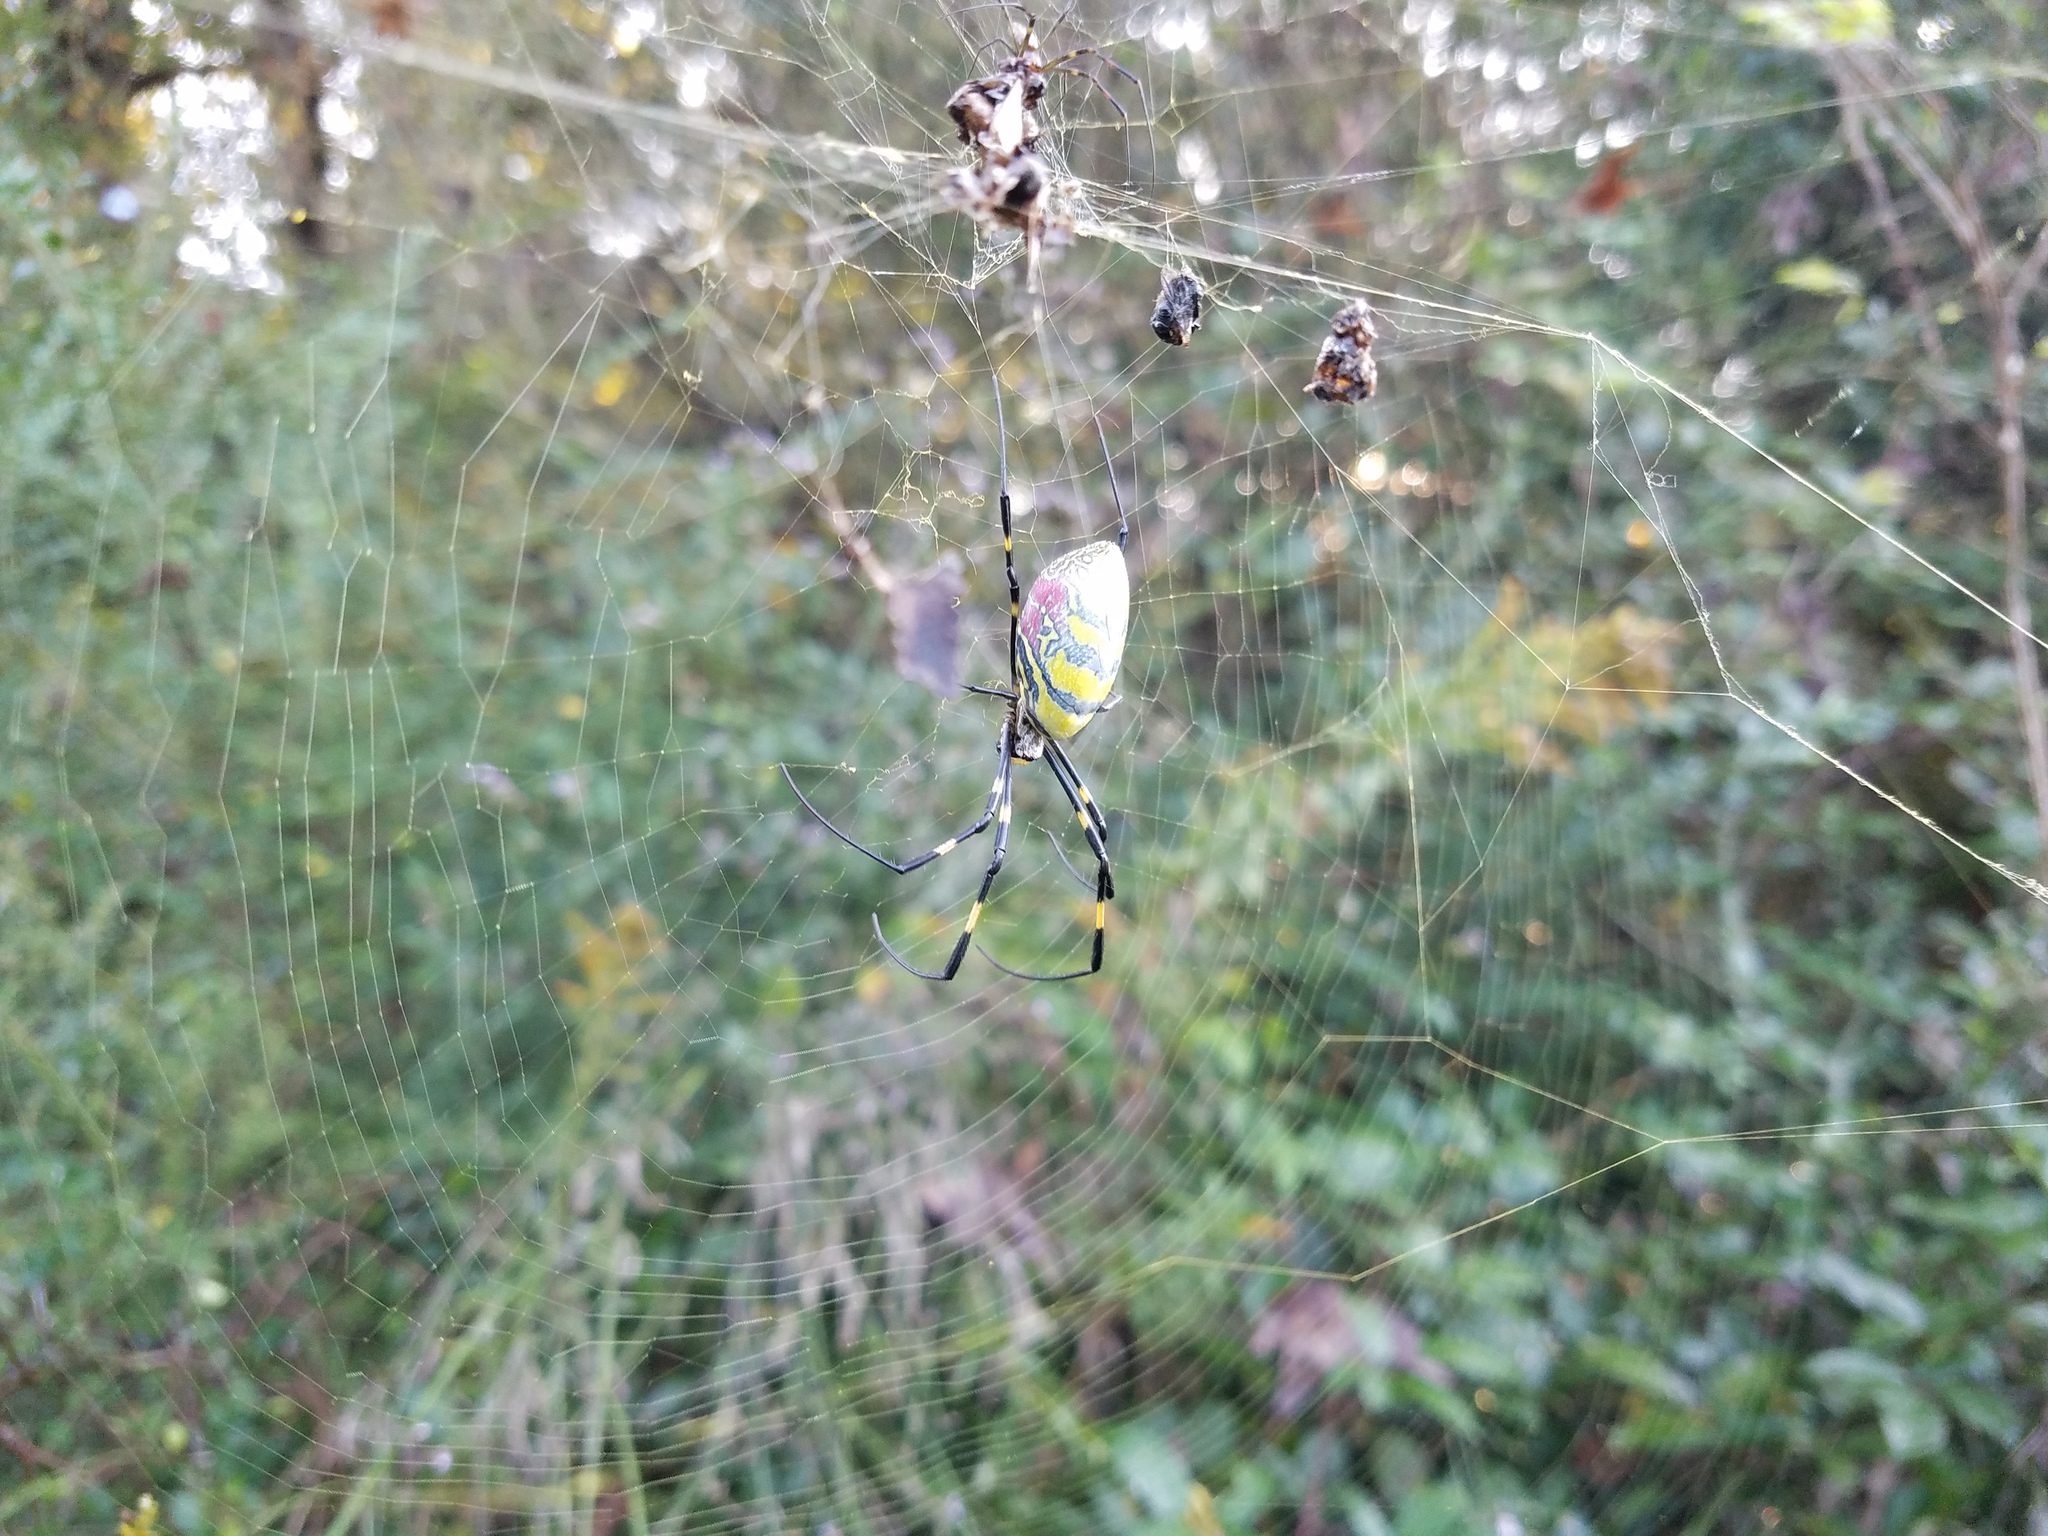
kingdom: Animalia
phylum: Arthropoda
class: Arachnida
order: Araneae
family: Araneidae
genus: Trichonephila
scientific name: Trichonephila clavata
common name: Jorō spider
